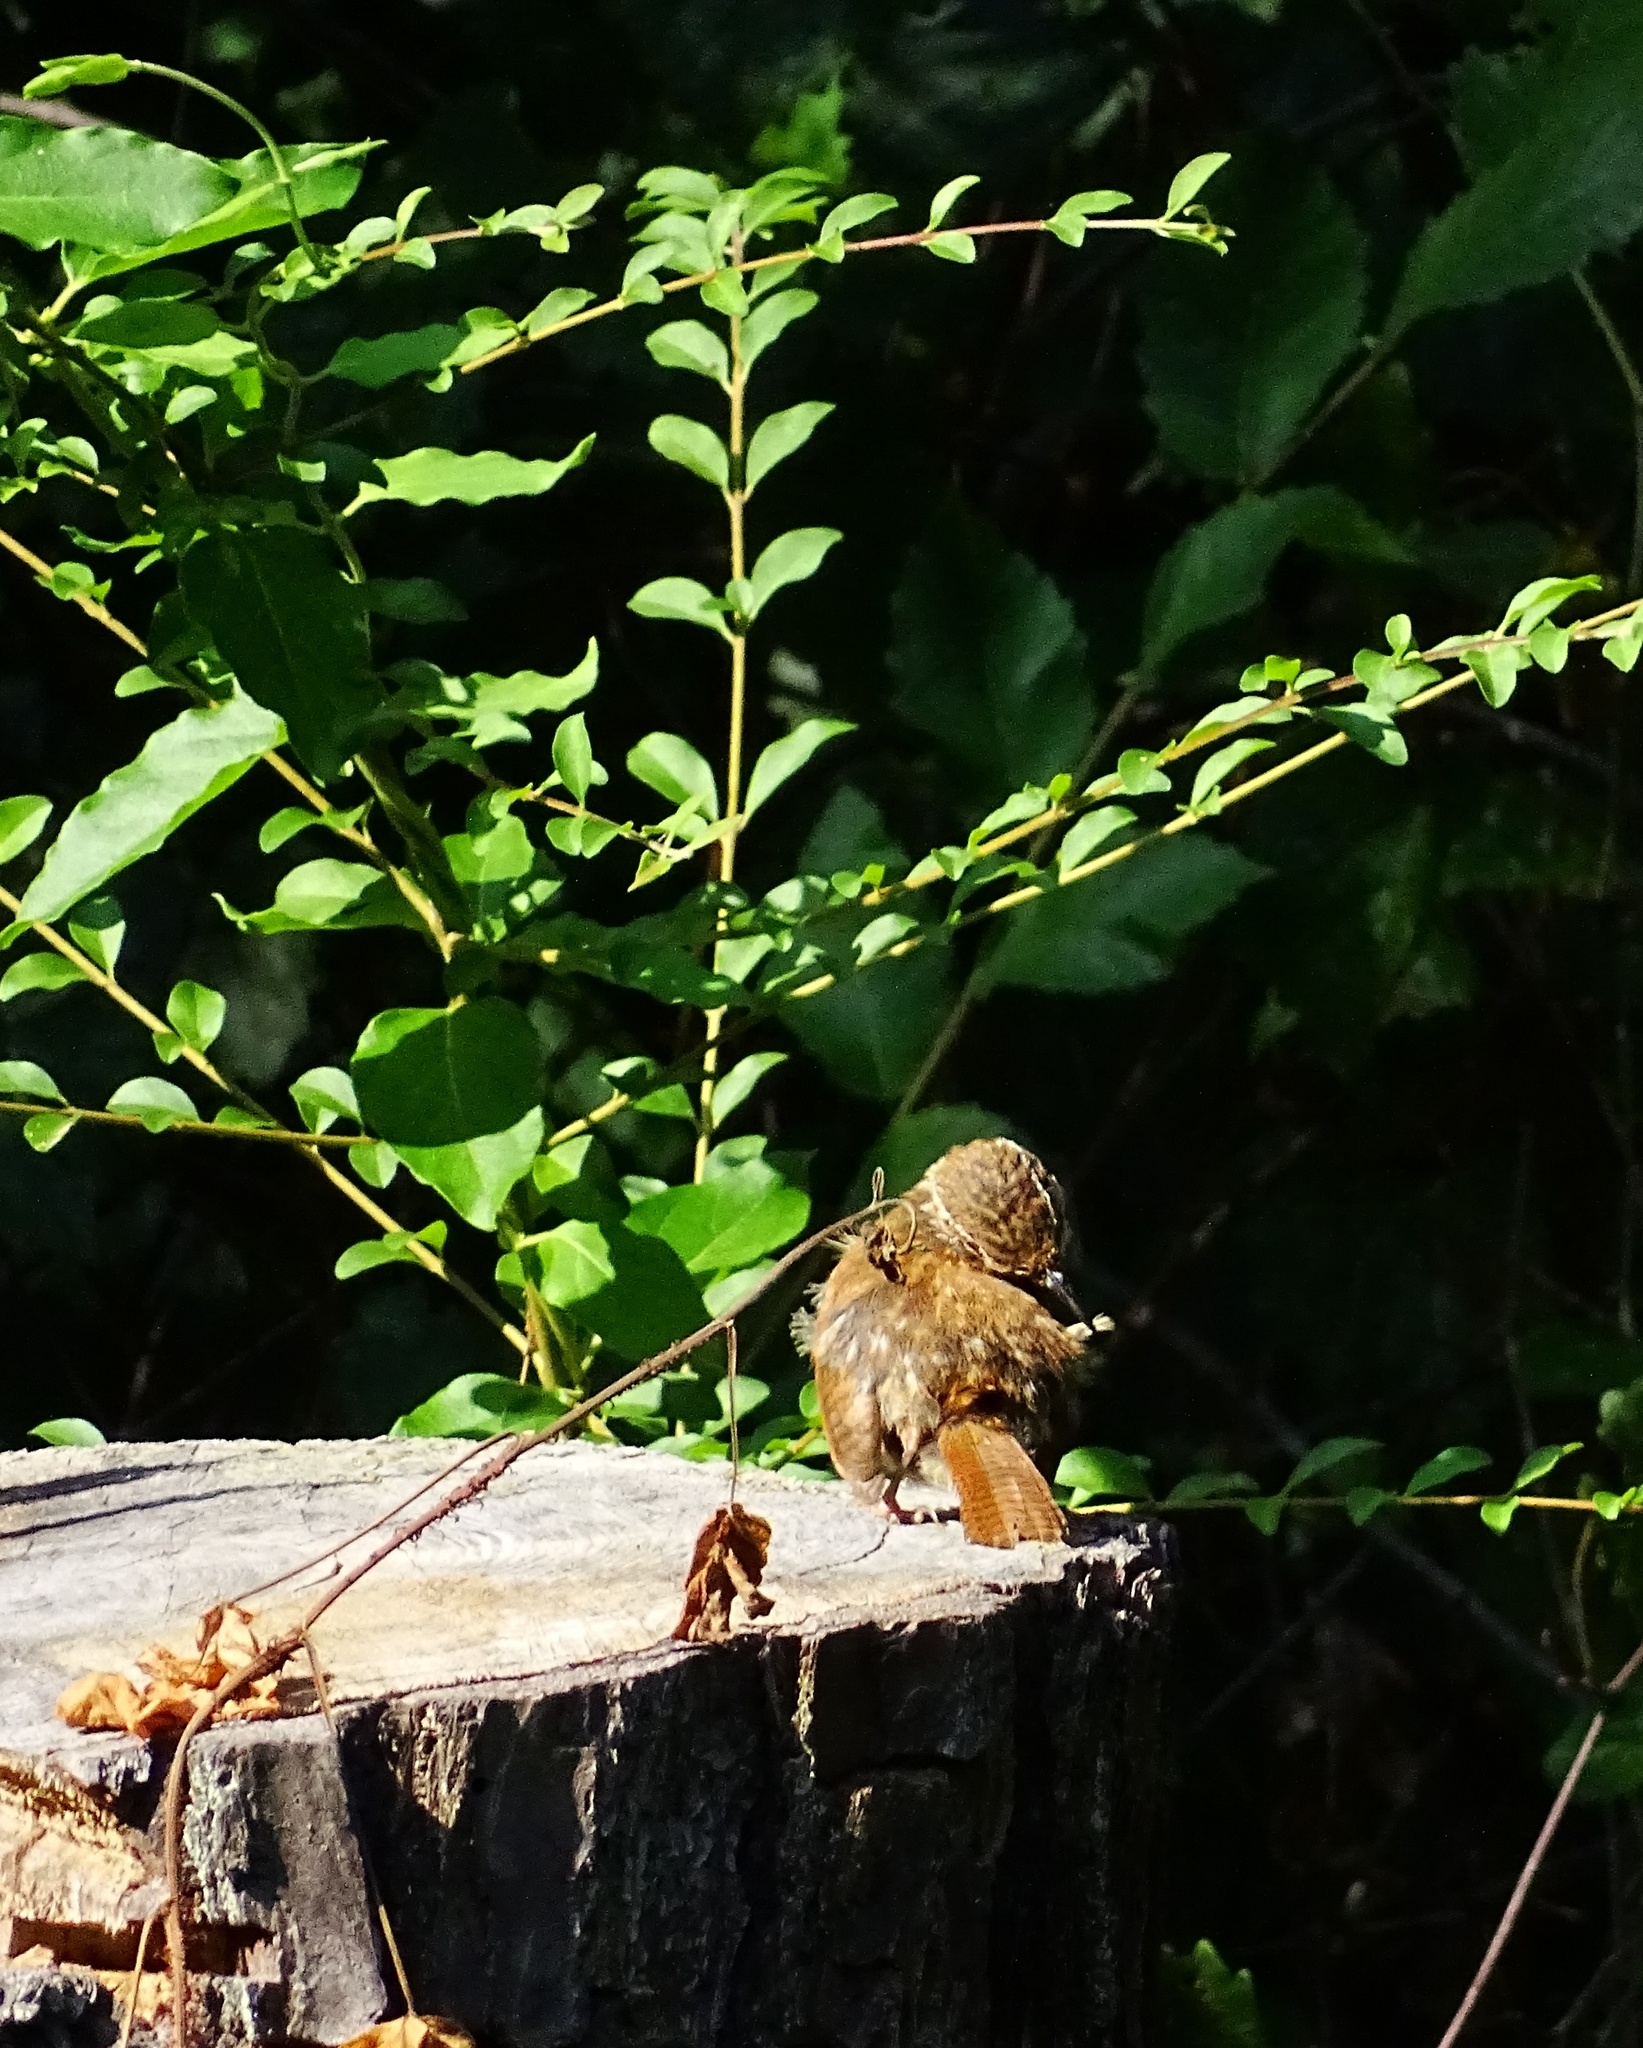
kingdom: Animalia
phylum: Chordata
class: Aves
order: Passeriformes
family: Troglodytidae
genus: Thryothorus
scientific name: Thryothorus ludovicianus
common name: Carolina wren
